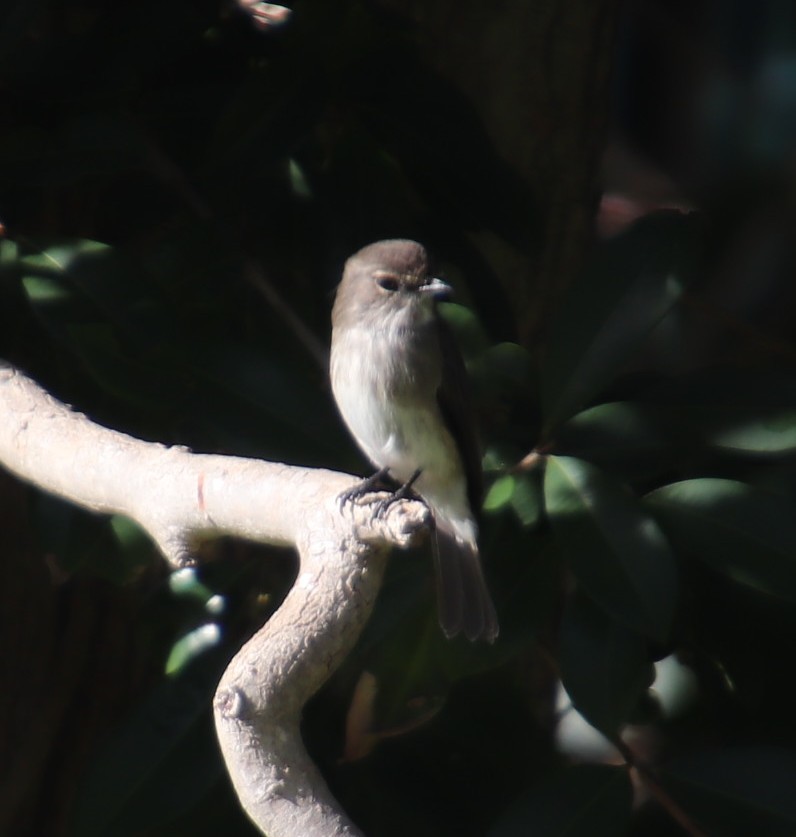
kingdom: Animalia
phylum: Chordata
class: Aves
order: Passeriformes
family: Muscicapidae
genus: Muscicapa
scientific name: Muscicapa adusta
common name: African dusky flycatcher
